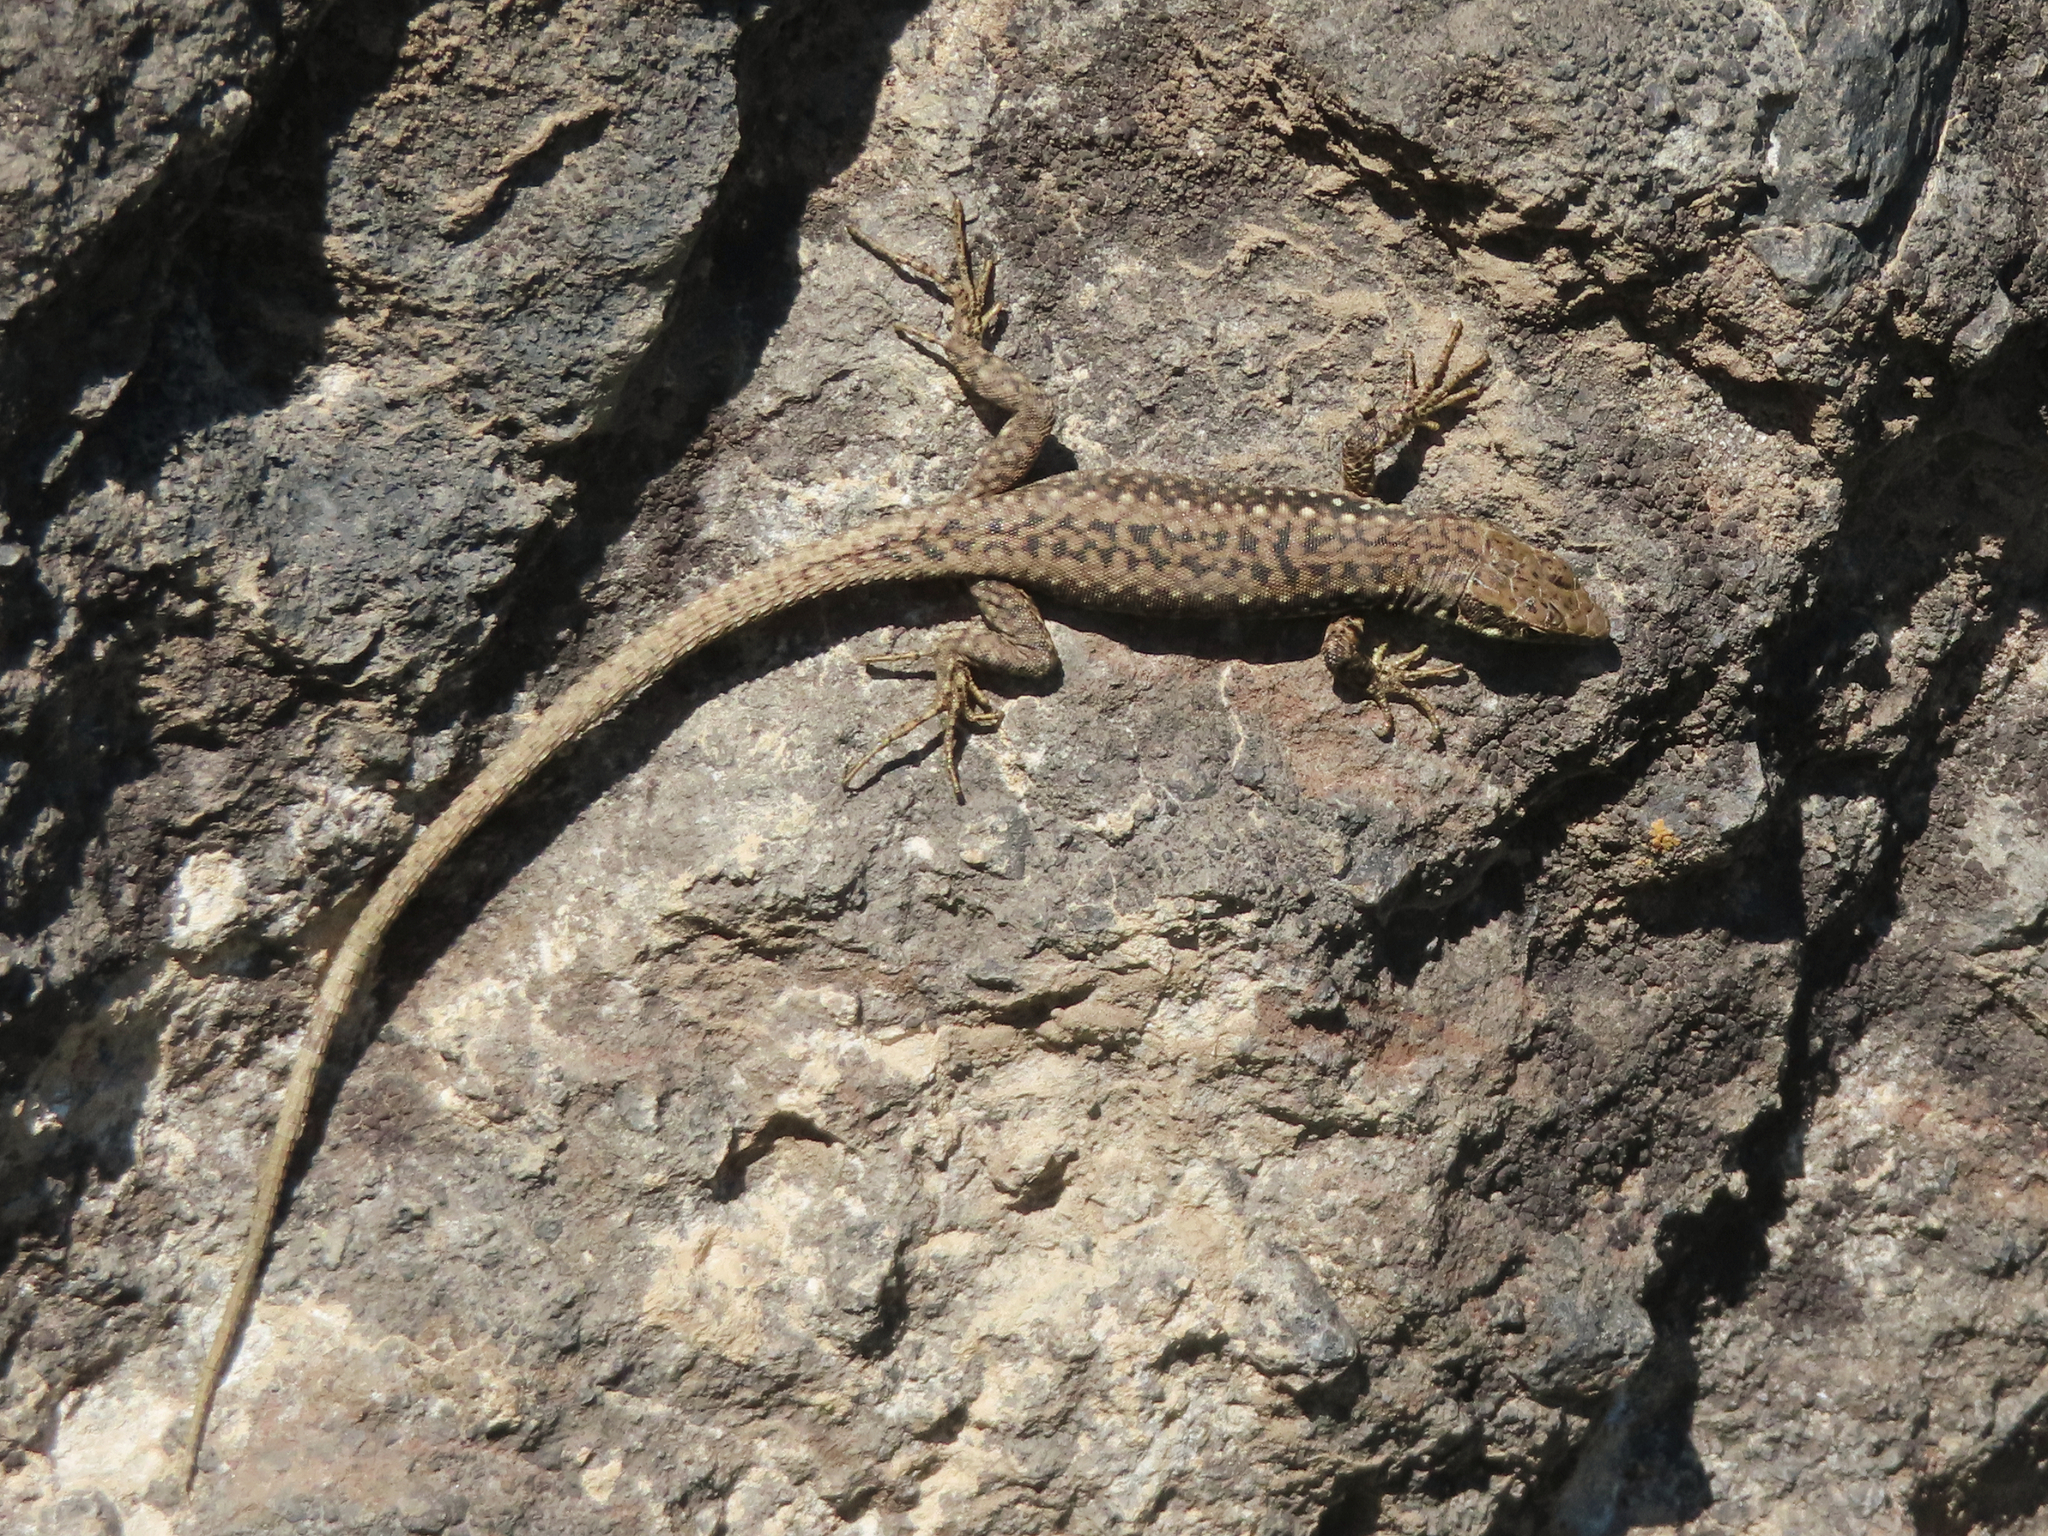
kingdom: Animalia
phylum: Chordata
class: Squamata
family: Lacertidae
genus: Darevskia
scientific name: Darevskia raddei
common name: Radde's lizard
